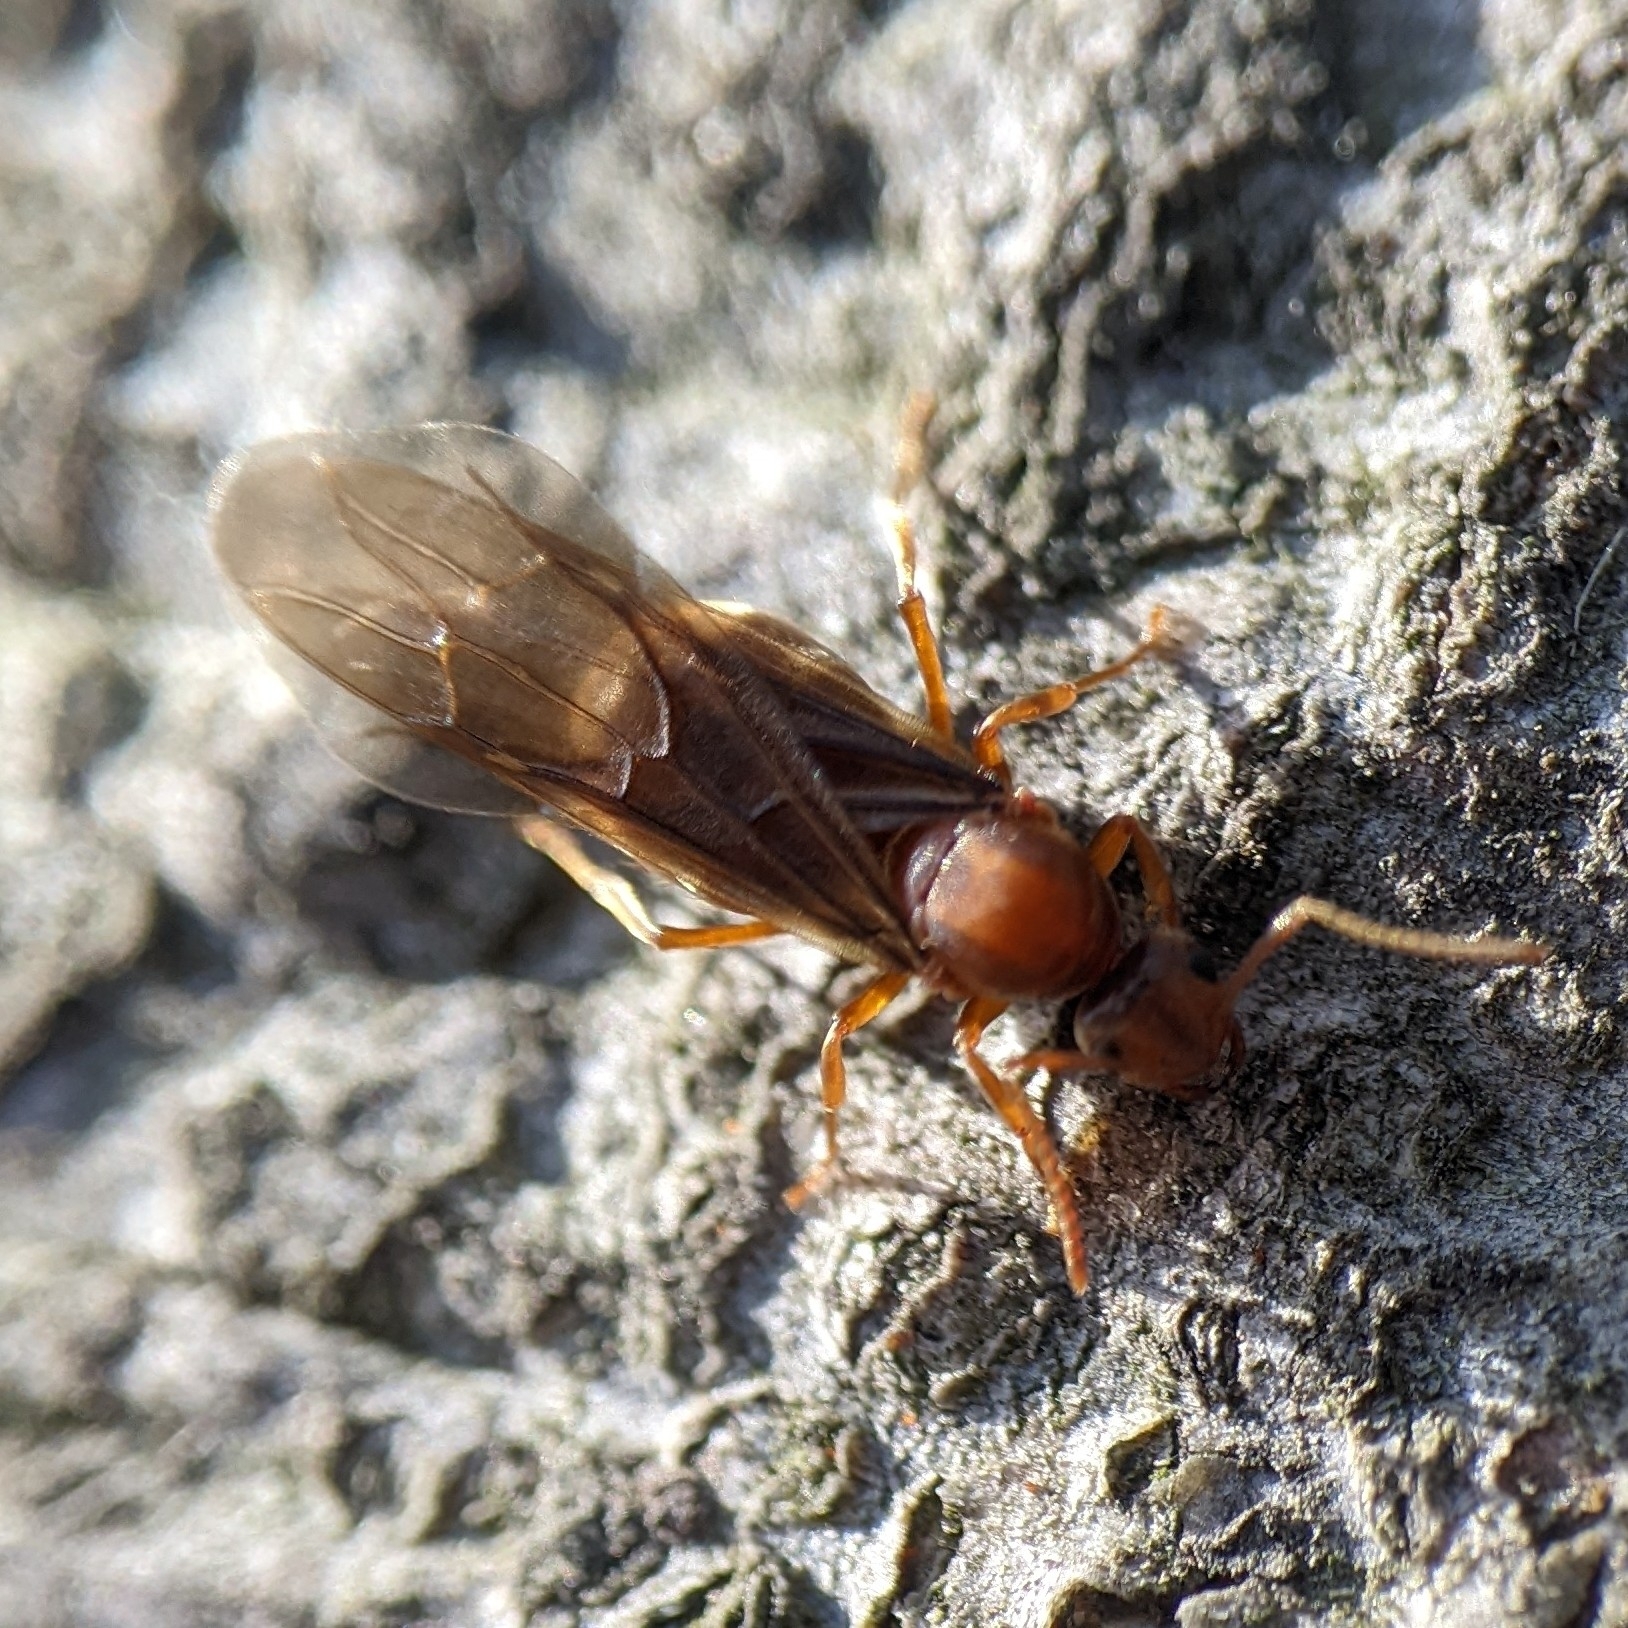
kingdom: Animalia
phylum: Arthropoda
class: Insecta
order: Hymenoptera
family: Formicidae
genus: Prenolepis
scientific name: Prenolepis imparis
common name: Small honey ant
